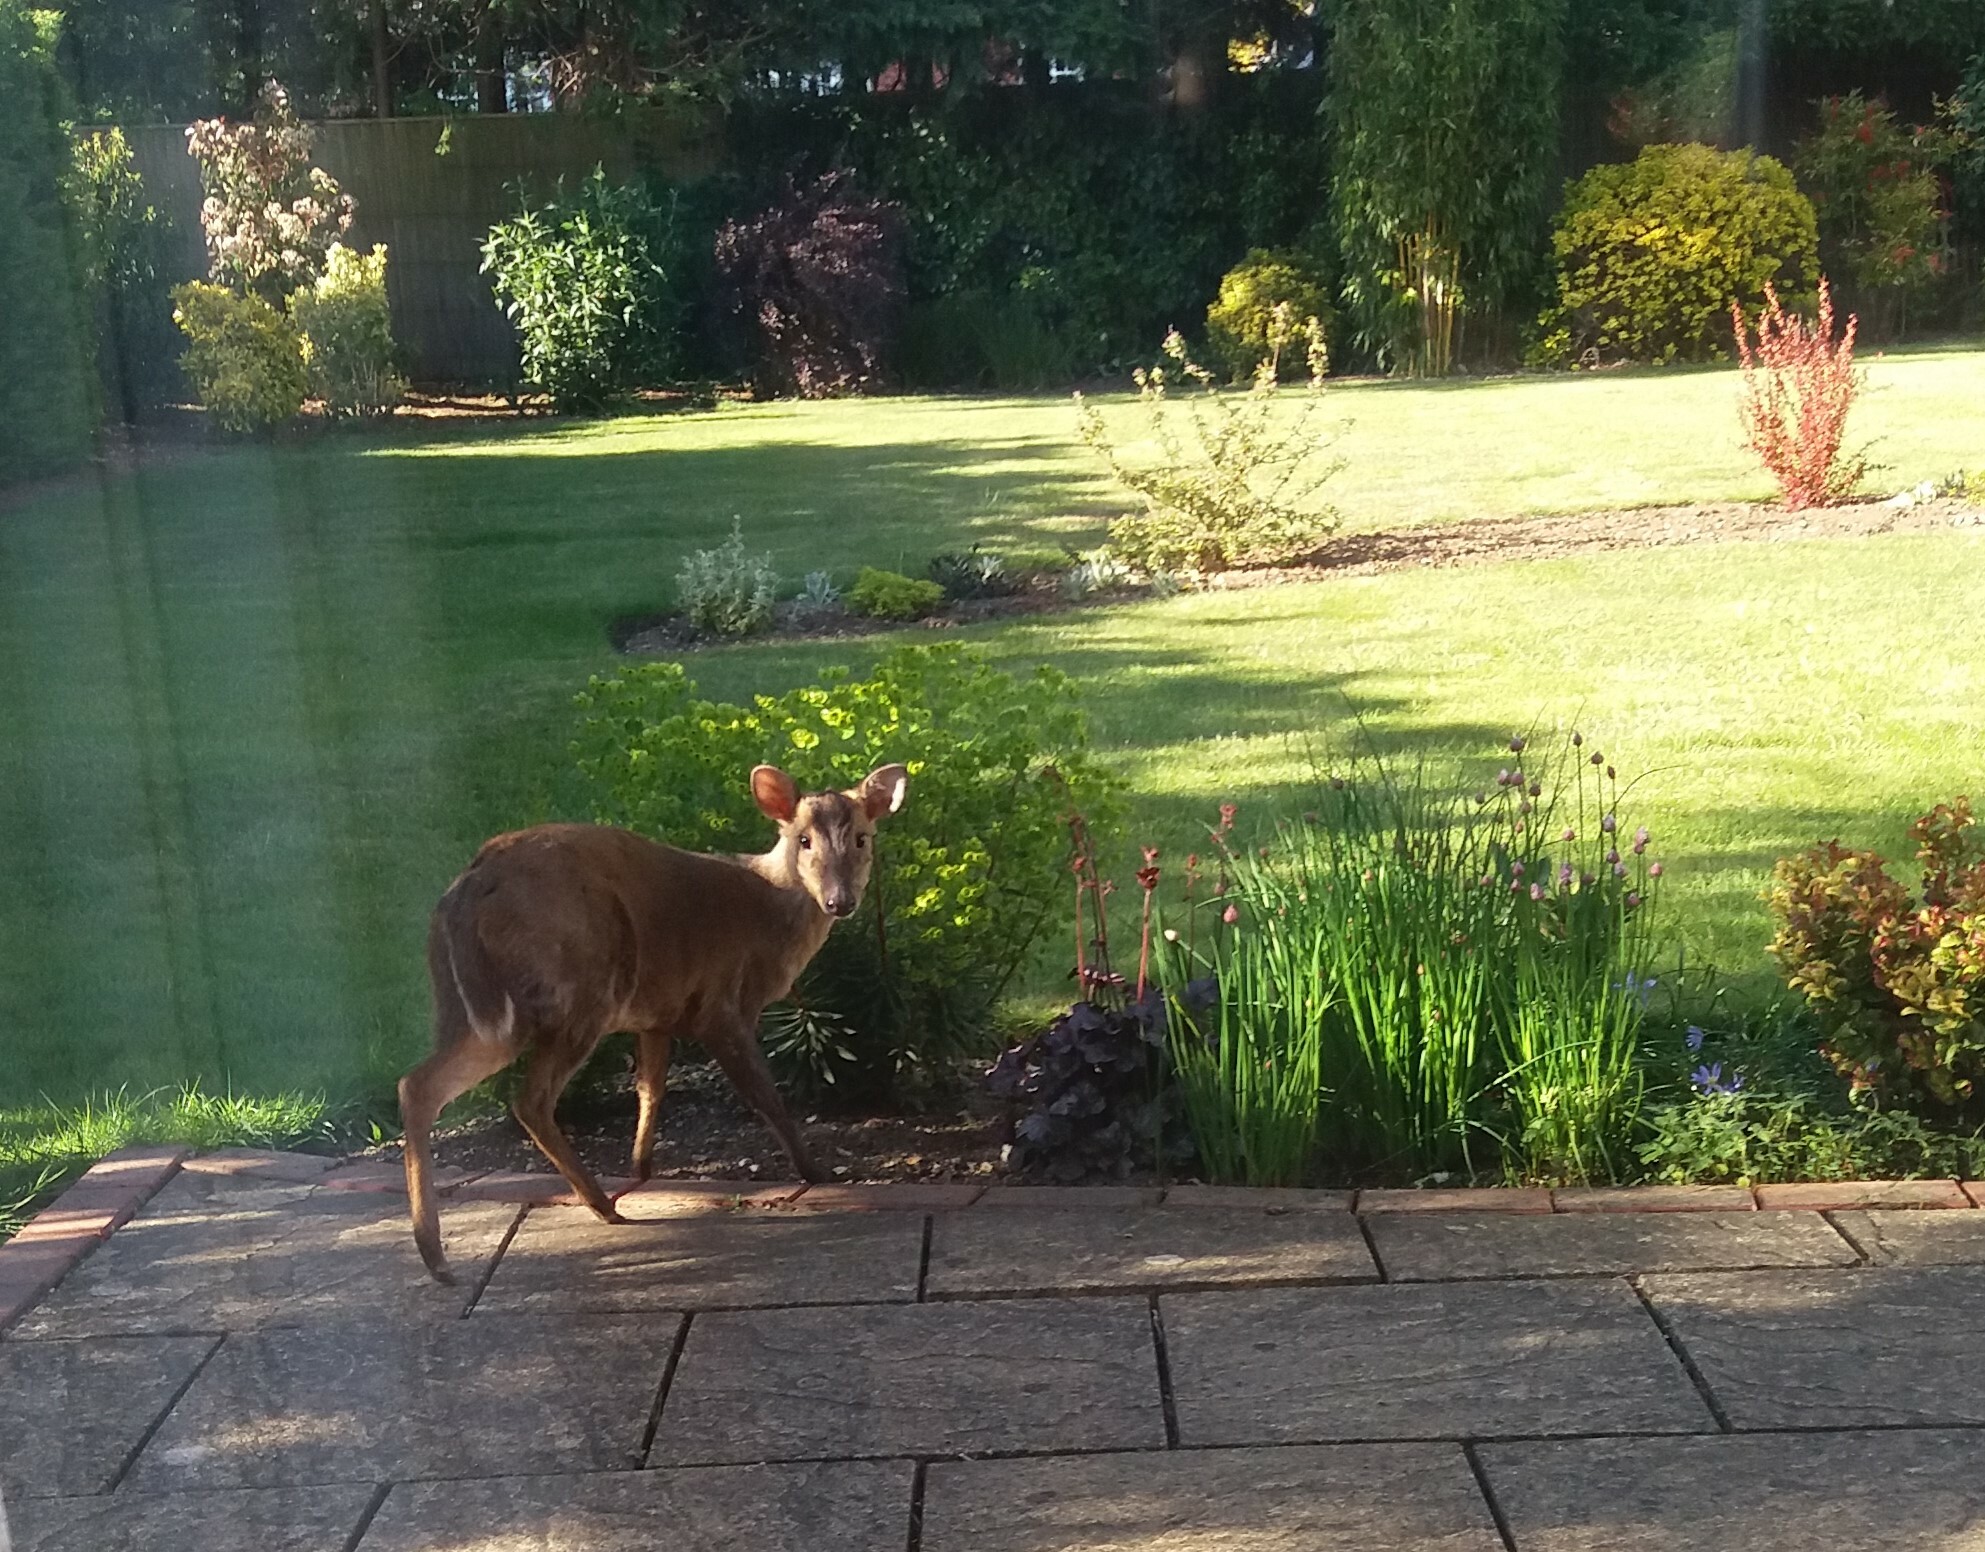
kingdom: Animalia
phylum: Chordata
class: Mammalia
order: Artiodactyla
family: Cervidae
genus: Muntiacus
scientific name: Muntiacus reevesi
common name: Reeves' muntjac
